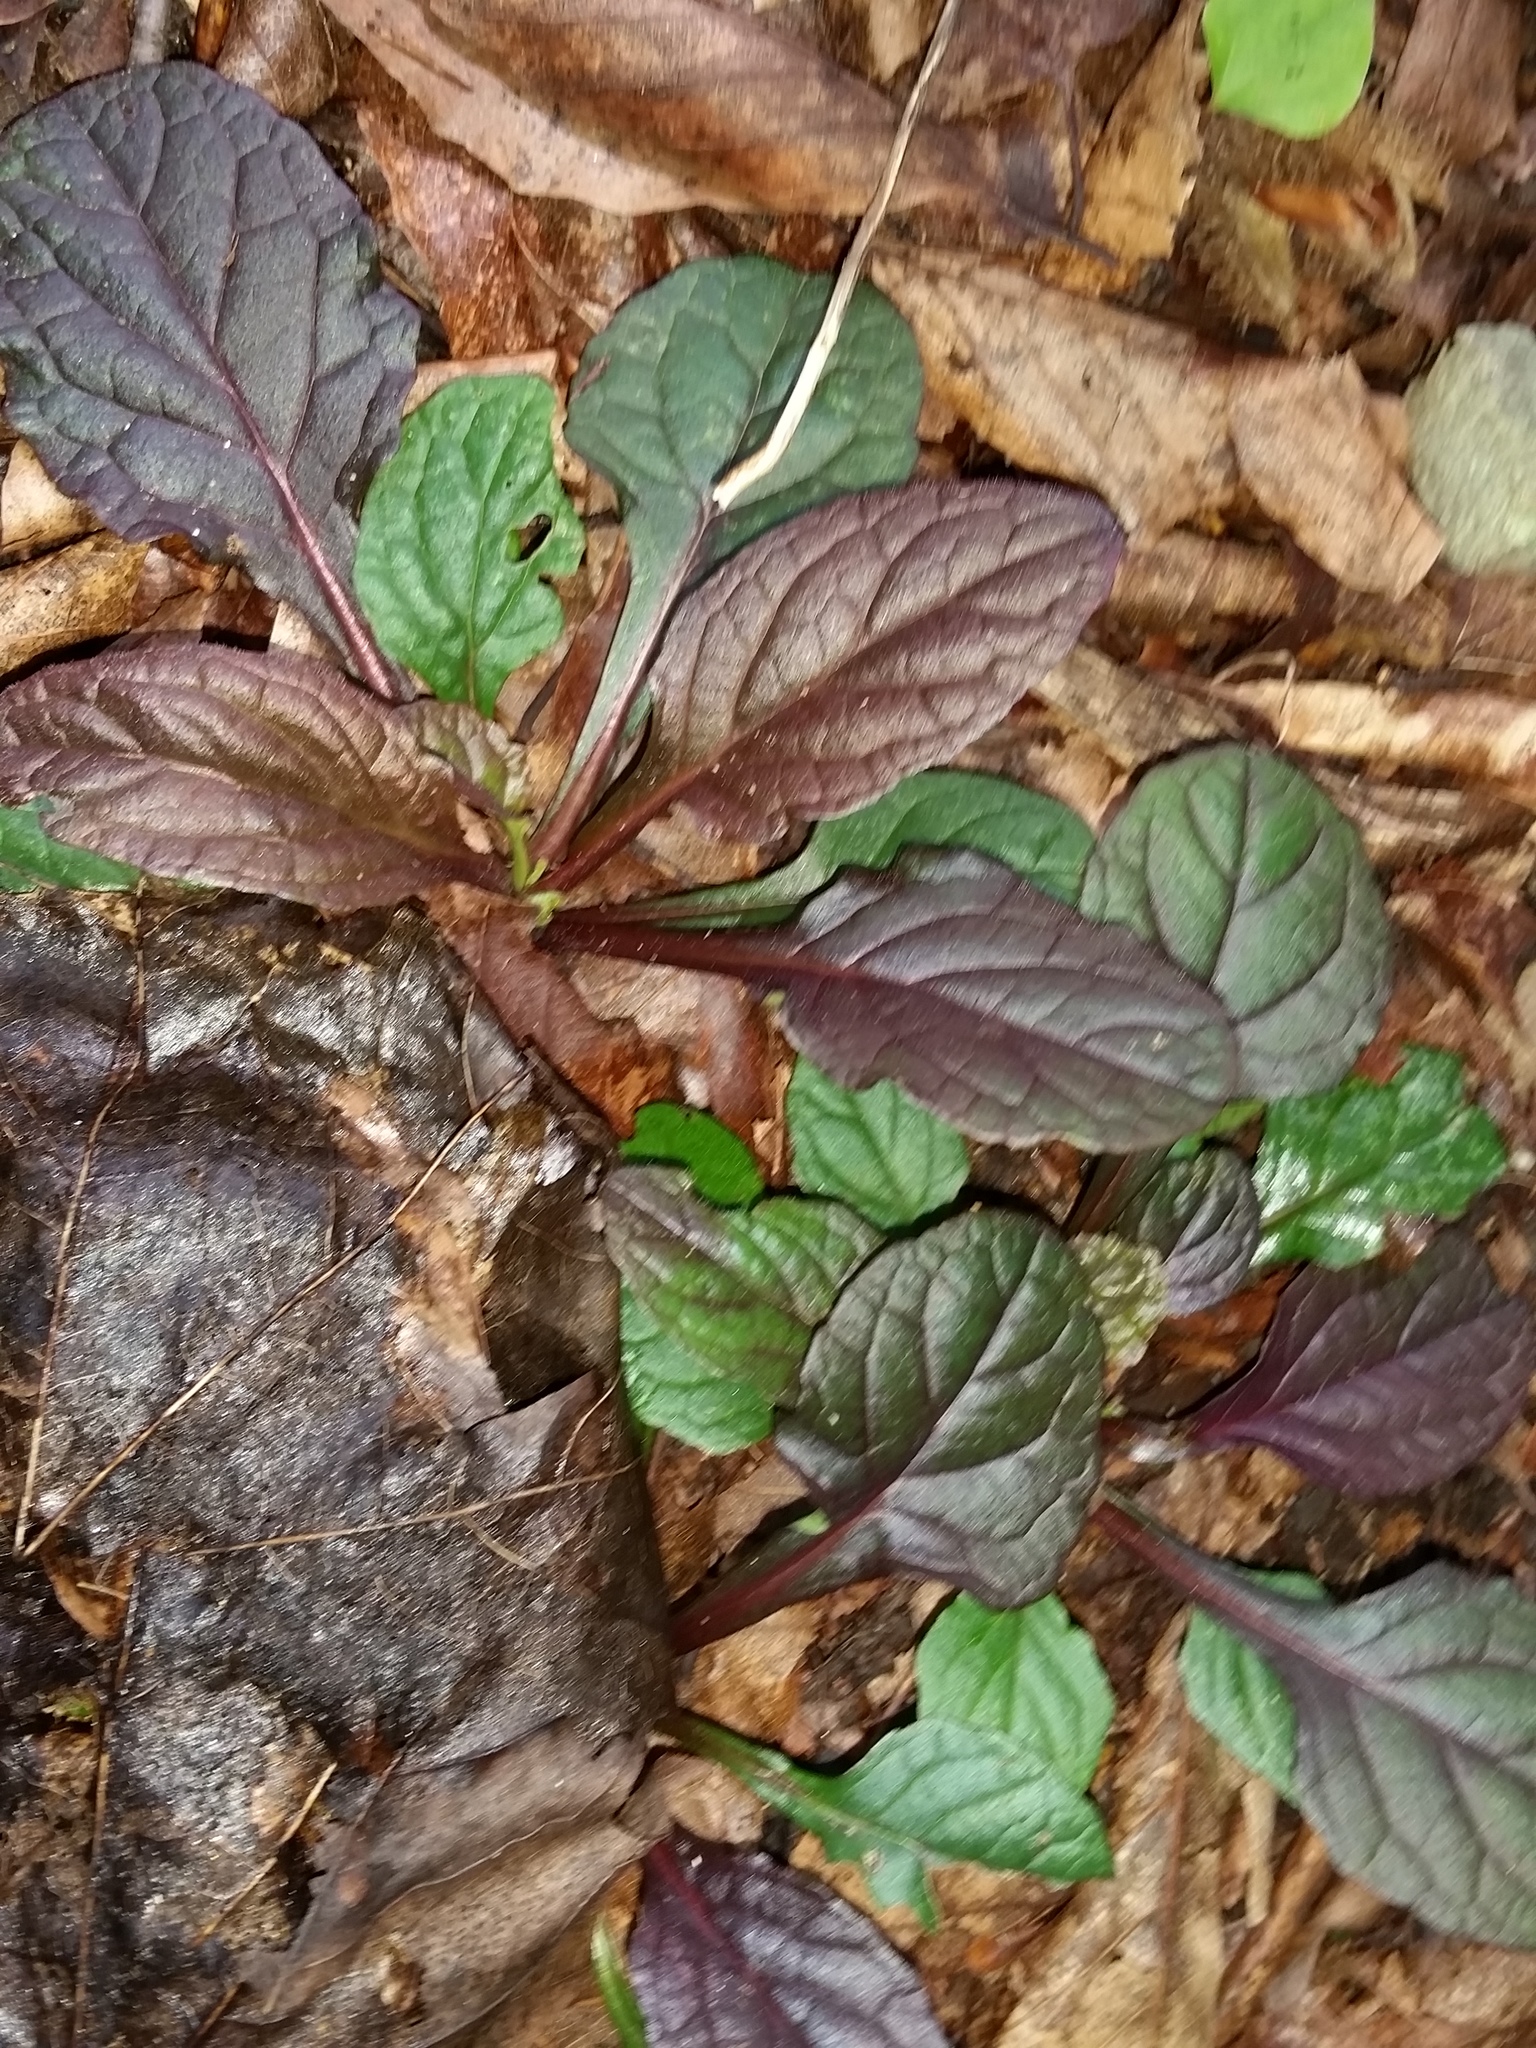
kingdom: Plantae
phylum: Tracheophyta
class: Magnoliopsida
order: Lamiales
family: Lamiaceae
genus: Ajuga
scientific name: Ajuga reptans
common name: Bugle
